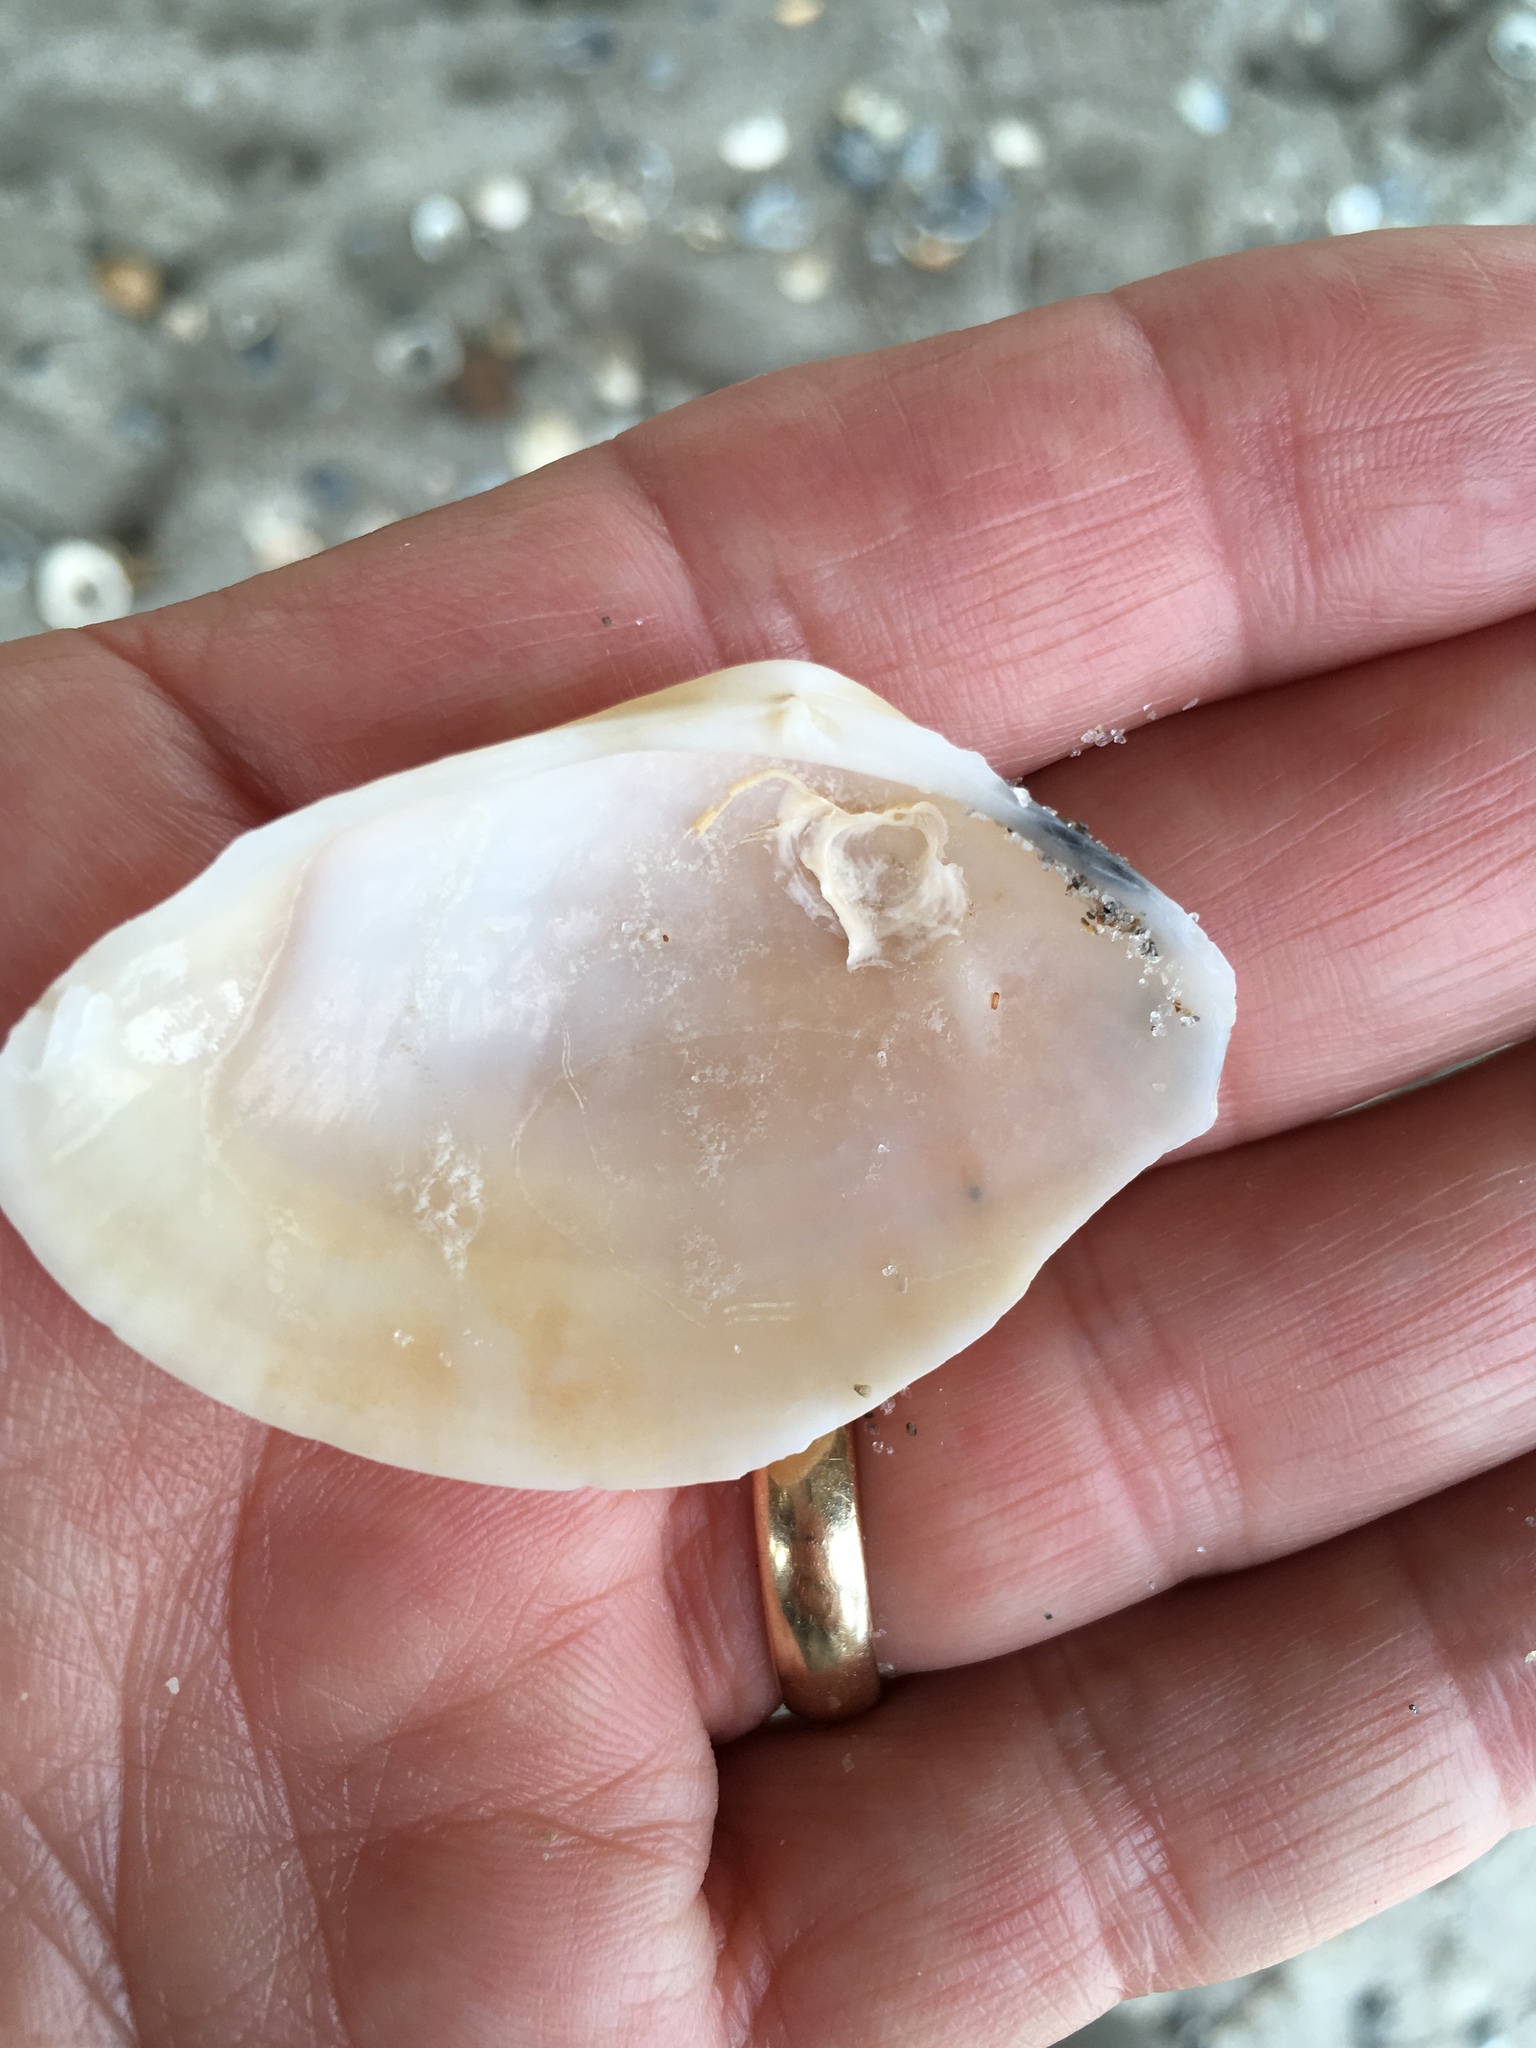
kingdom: Animalia
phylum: Mollusca
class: Bivalvia
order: Cardiida
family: Donacidae
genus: Iphigenia
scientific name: Iphigenia brasiliensis
